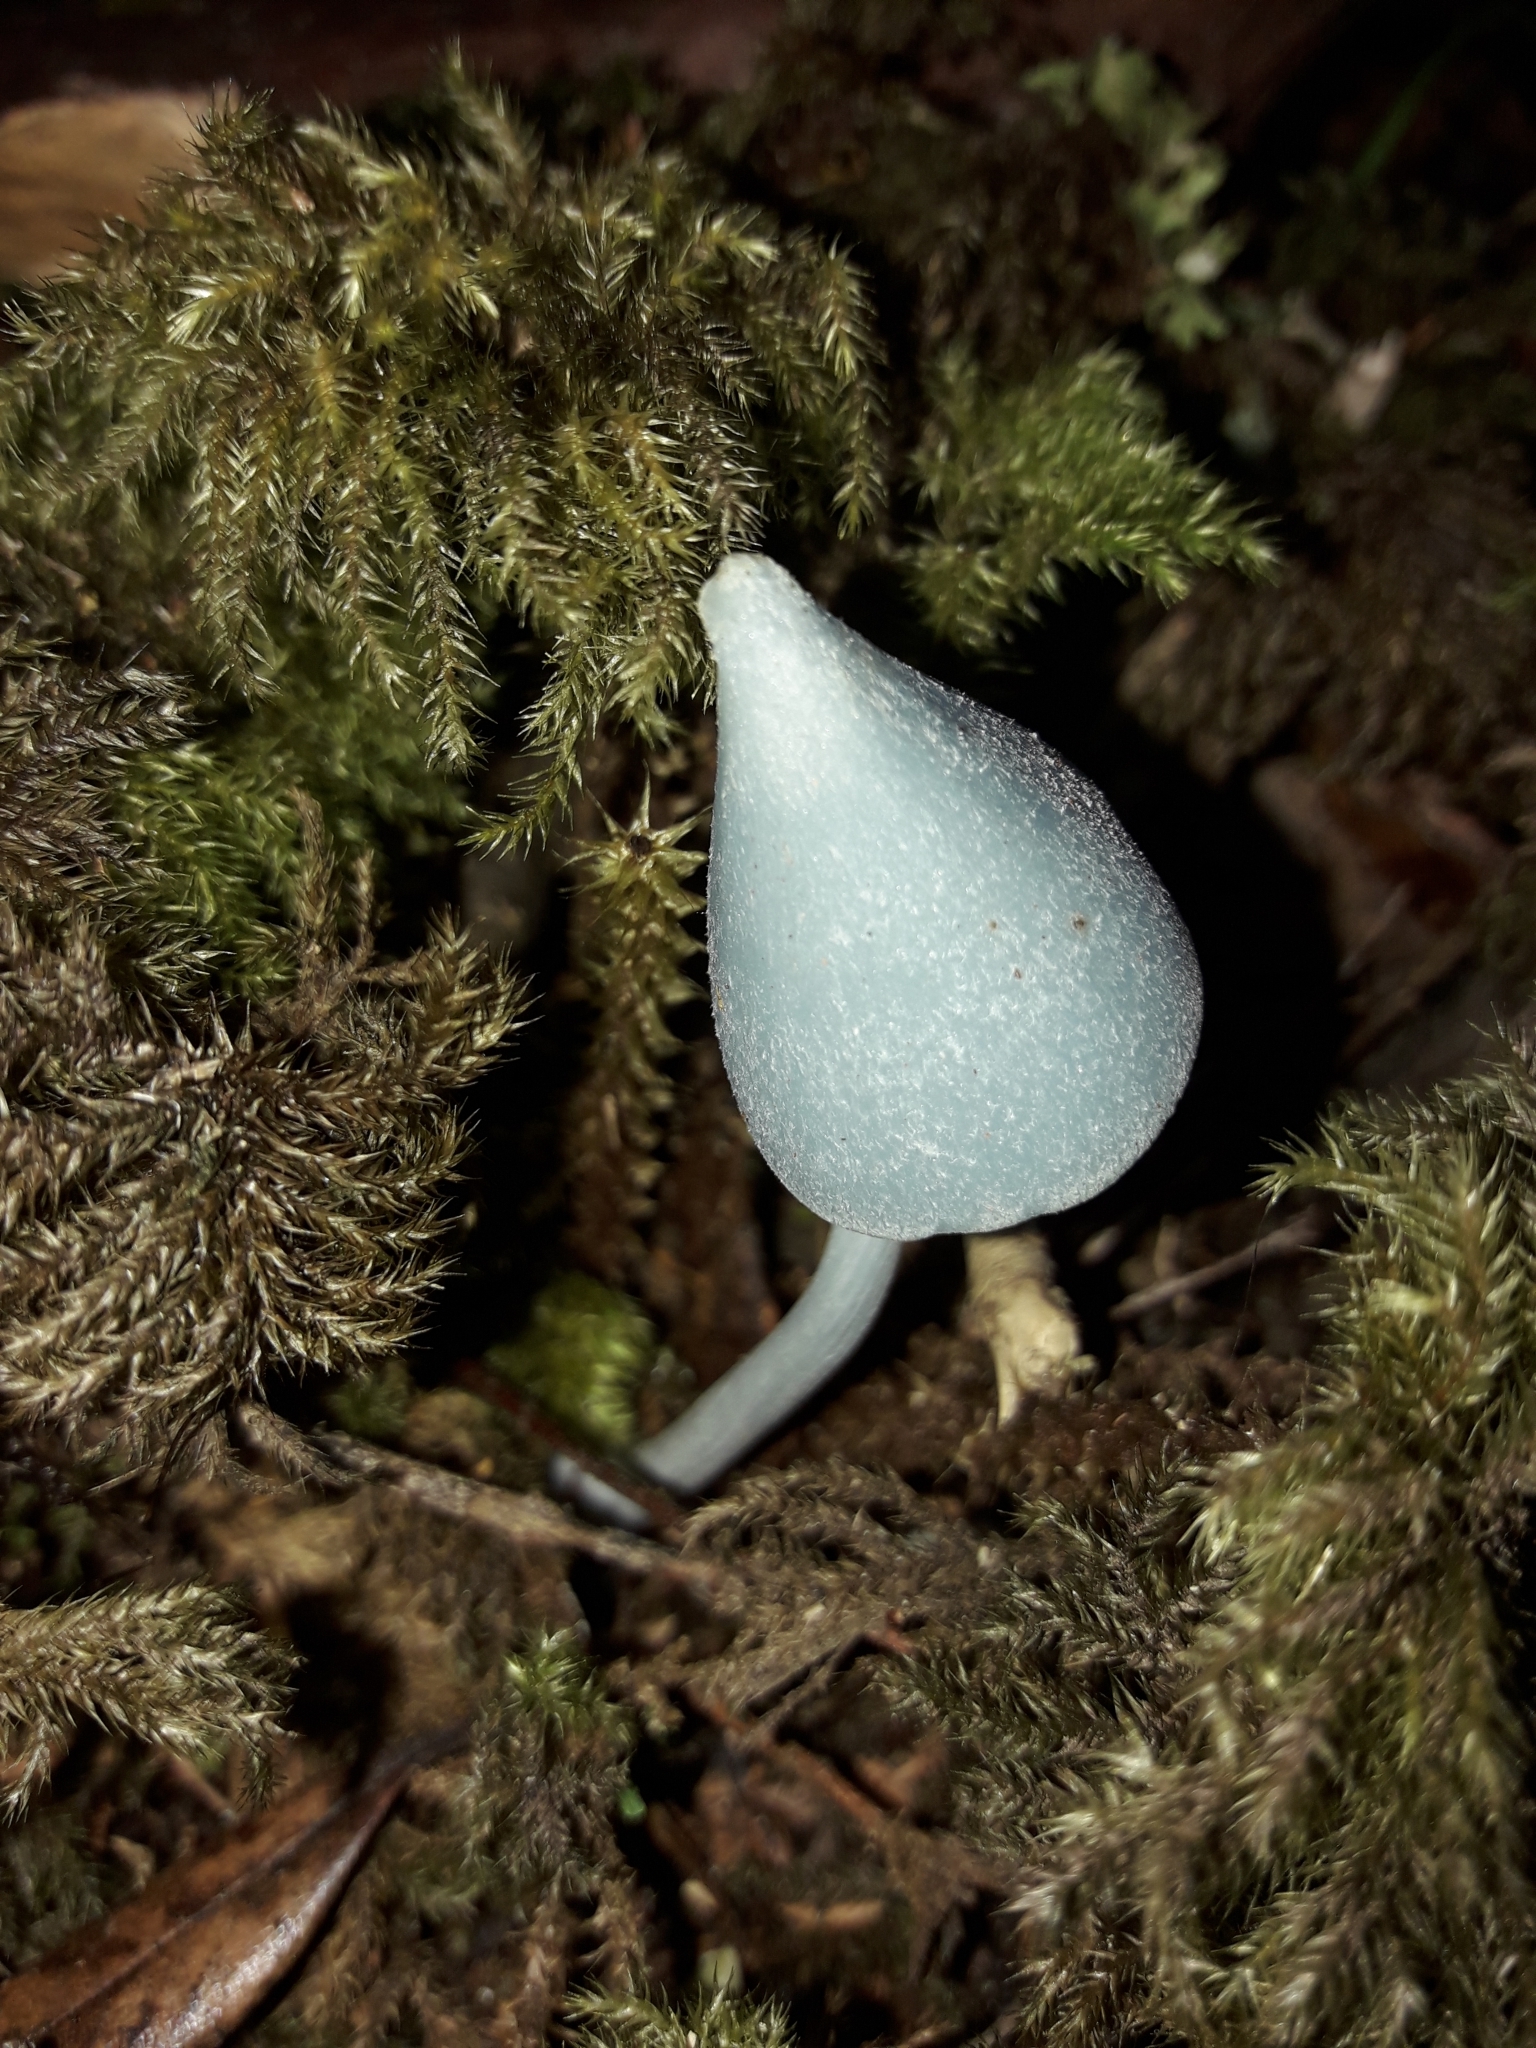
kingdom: Fungi
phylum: Basidiomycota
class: Agaricomycetes
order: Agaricales
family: Entolomataceae
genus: Entoloma
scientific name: Entoloma canoconicum
